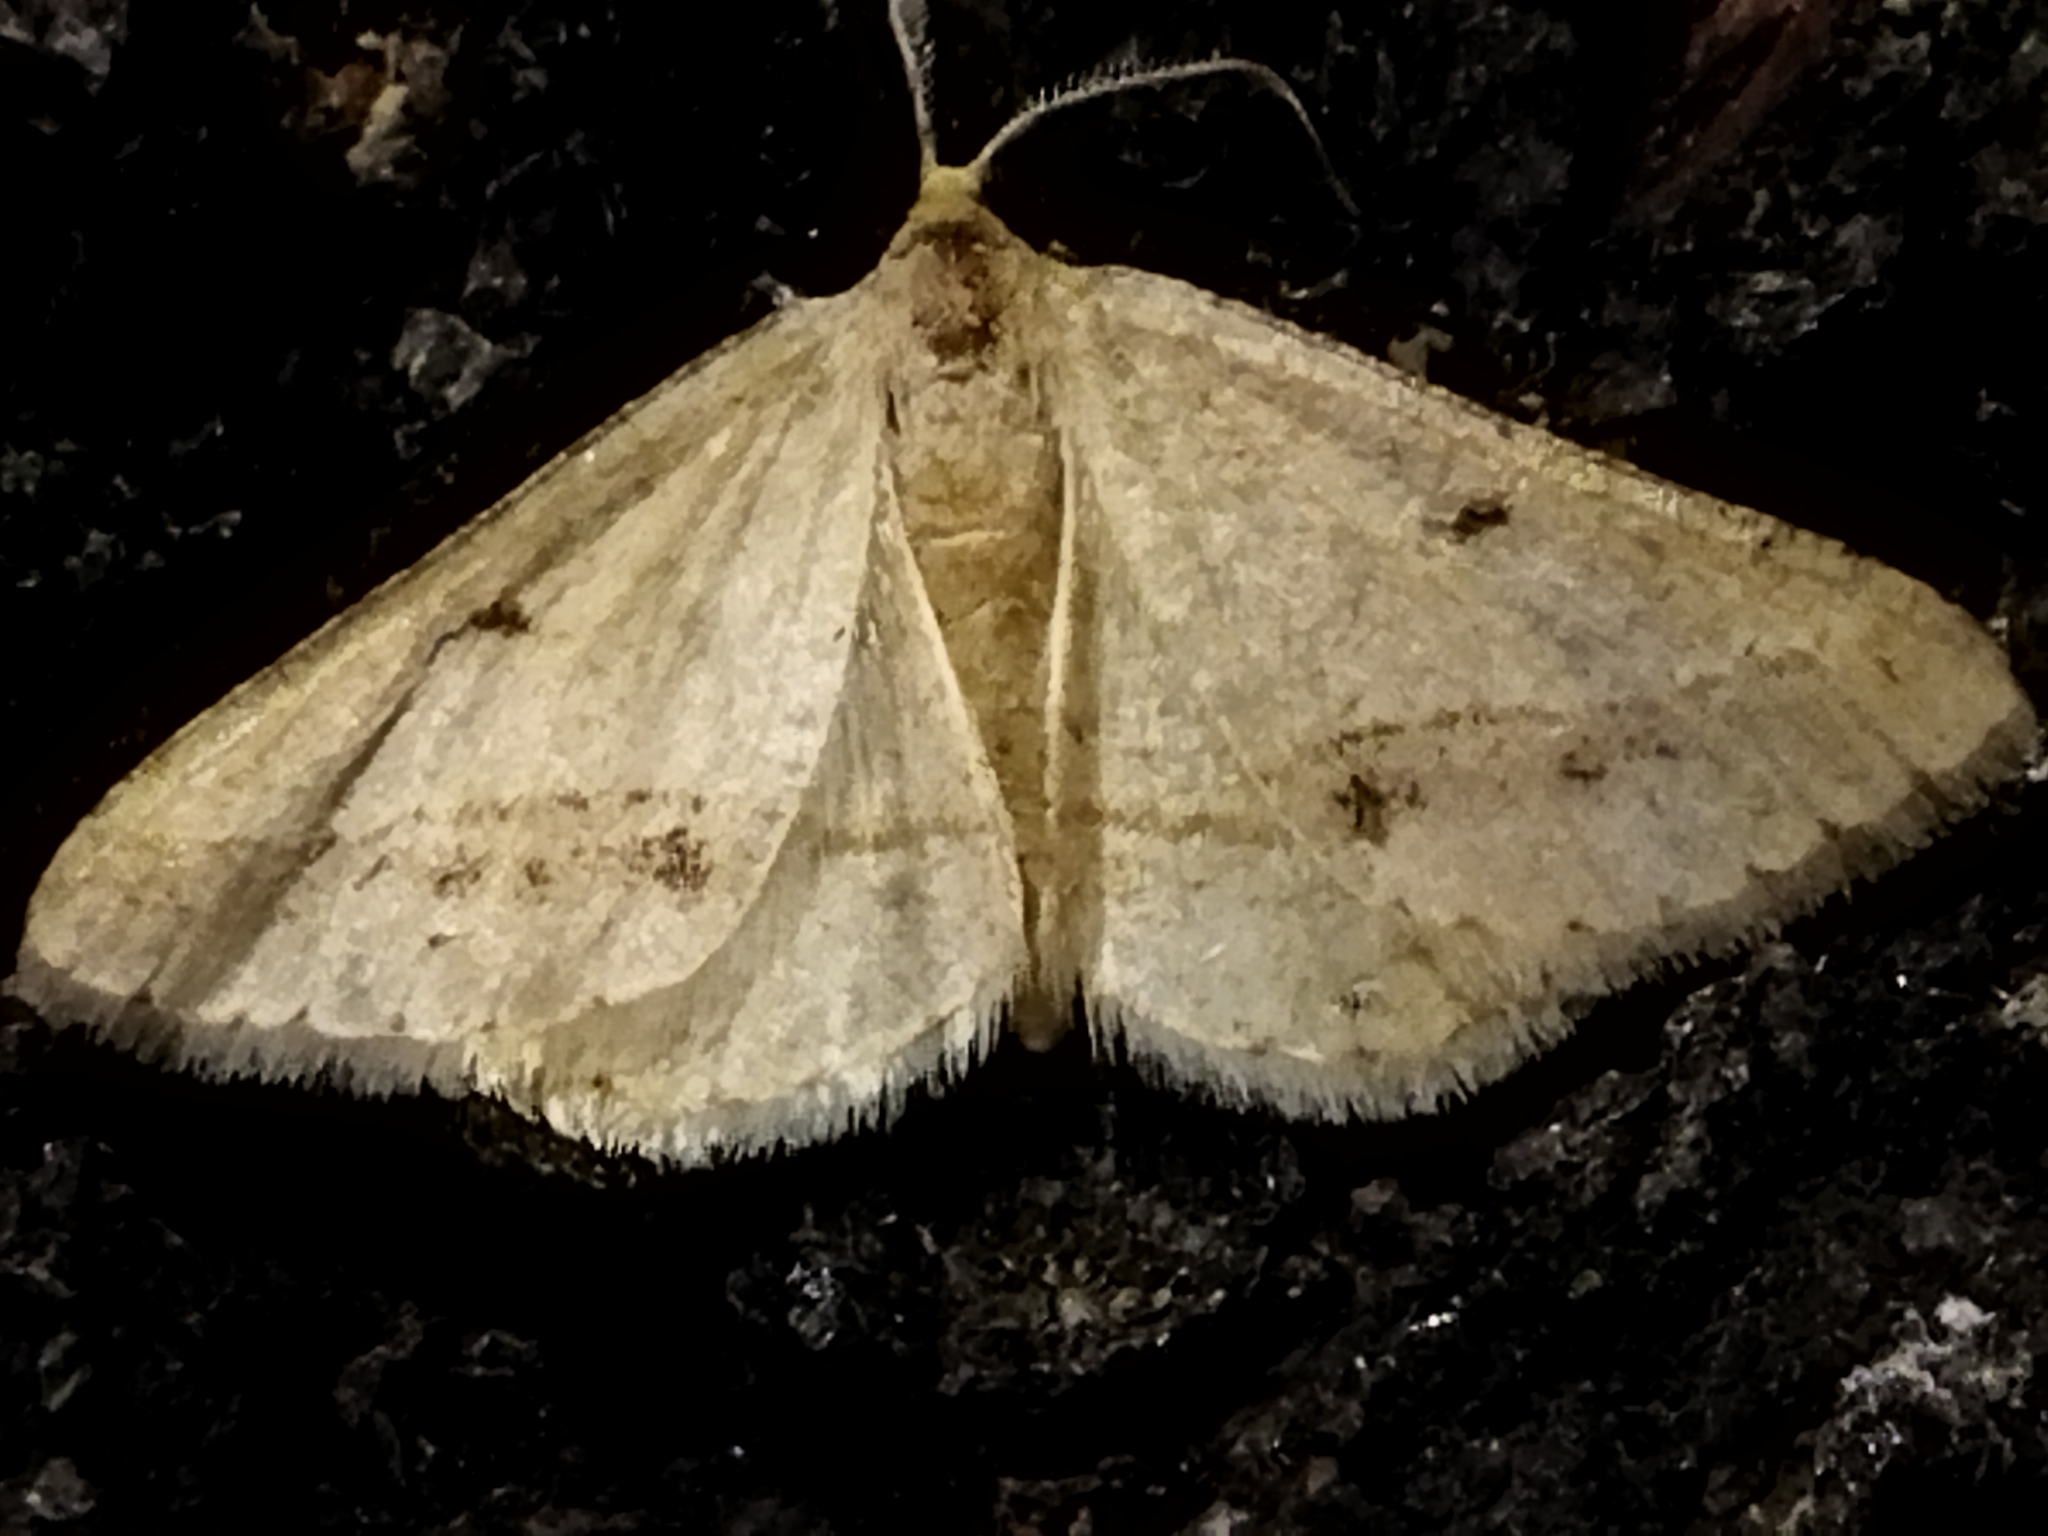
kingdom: Animalia
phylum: Arthropoda
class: Insecta
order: Lepidoptera
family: Geometridae
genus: Tephrina
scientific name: Tephrina arenacearia
